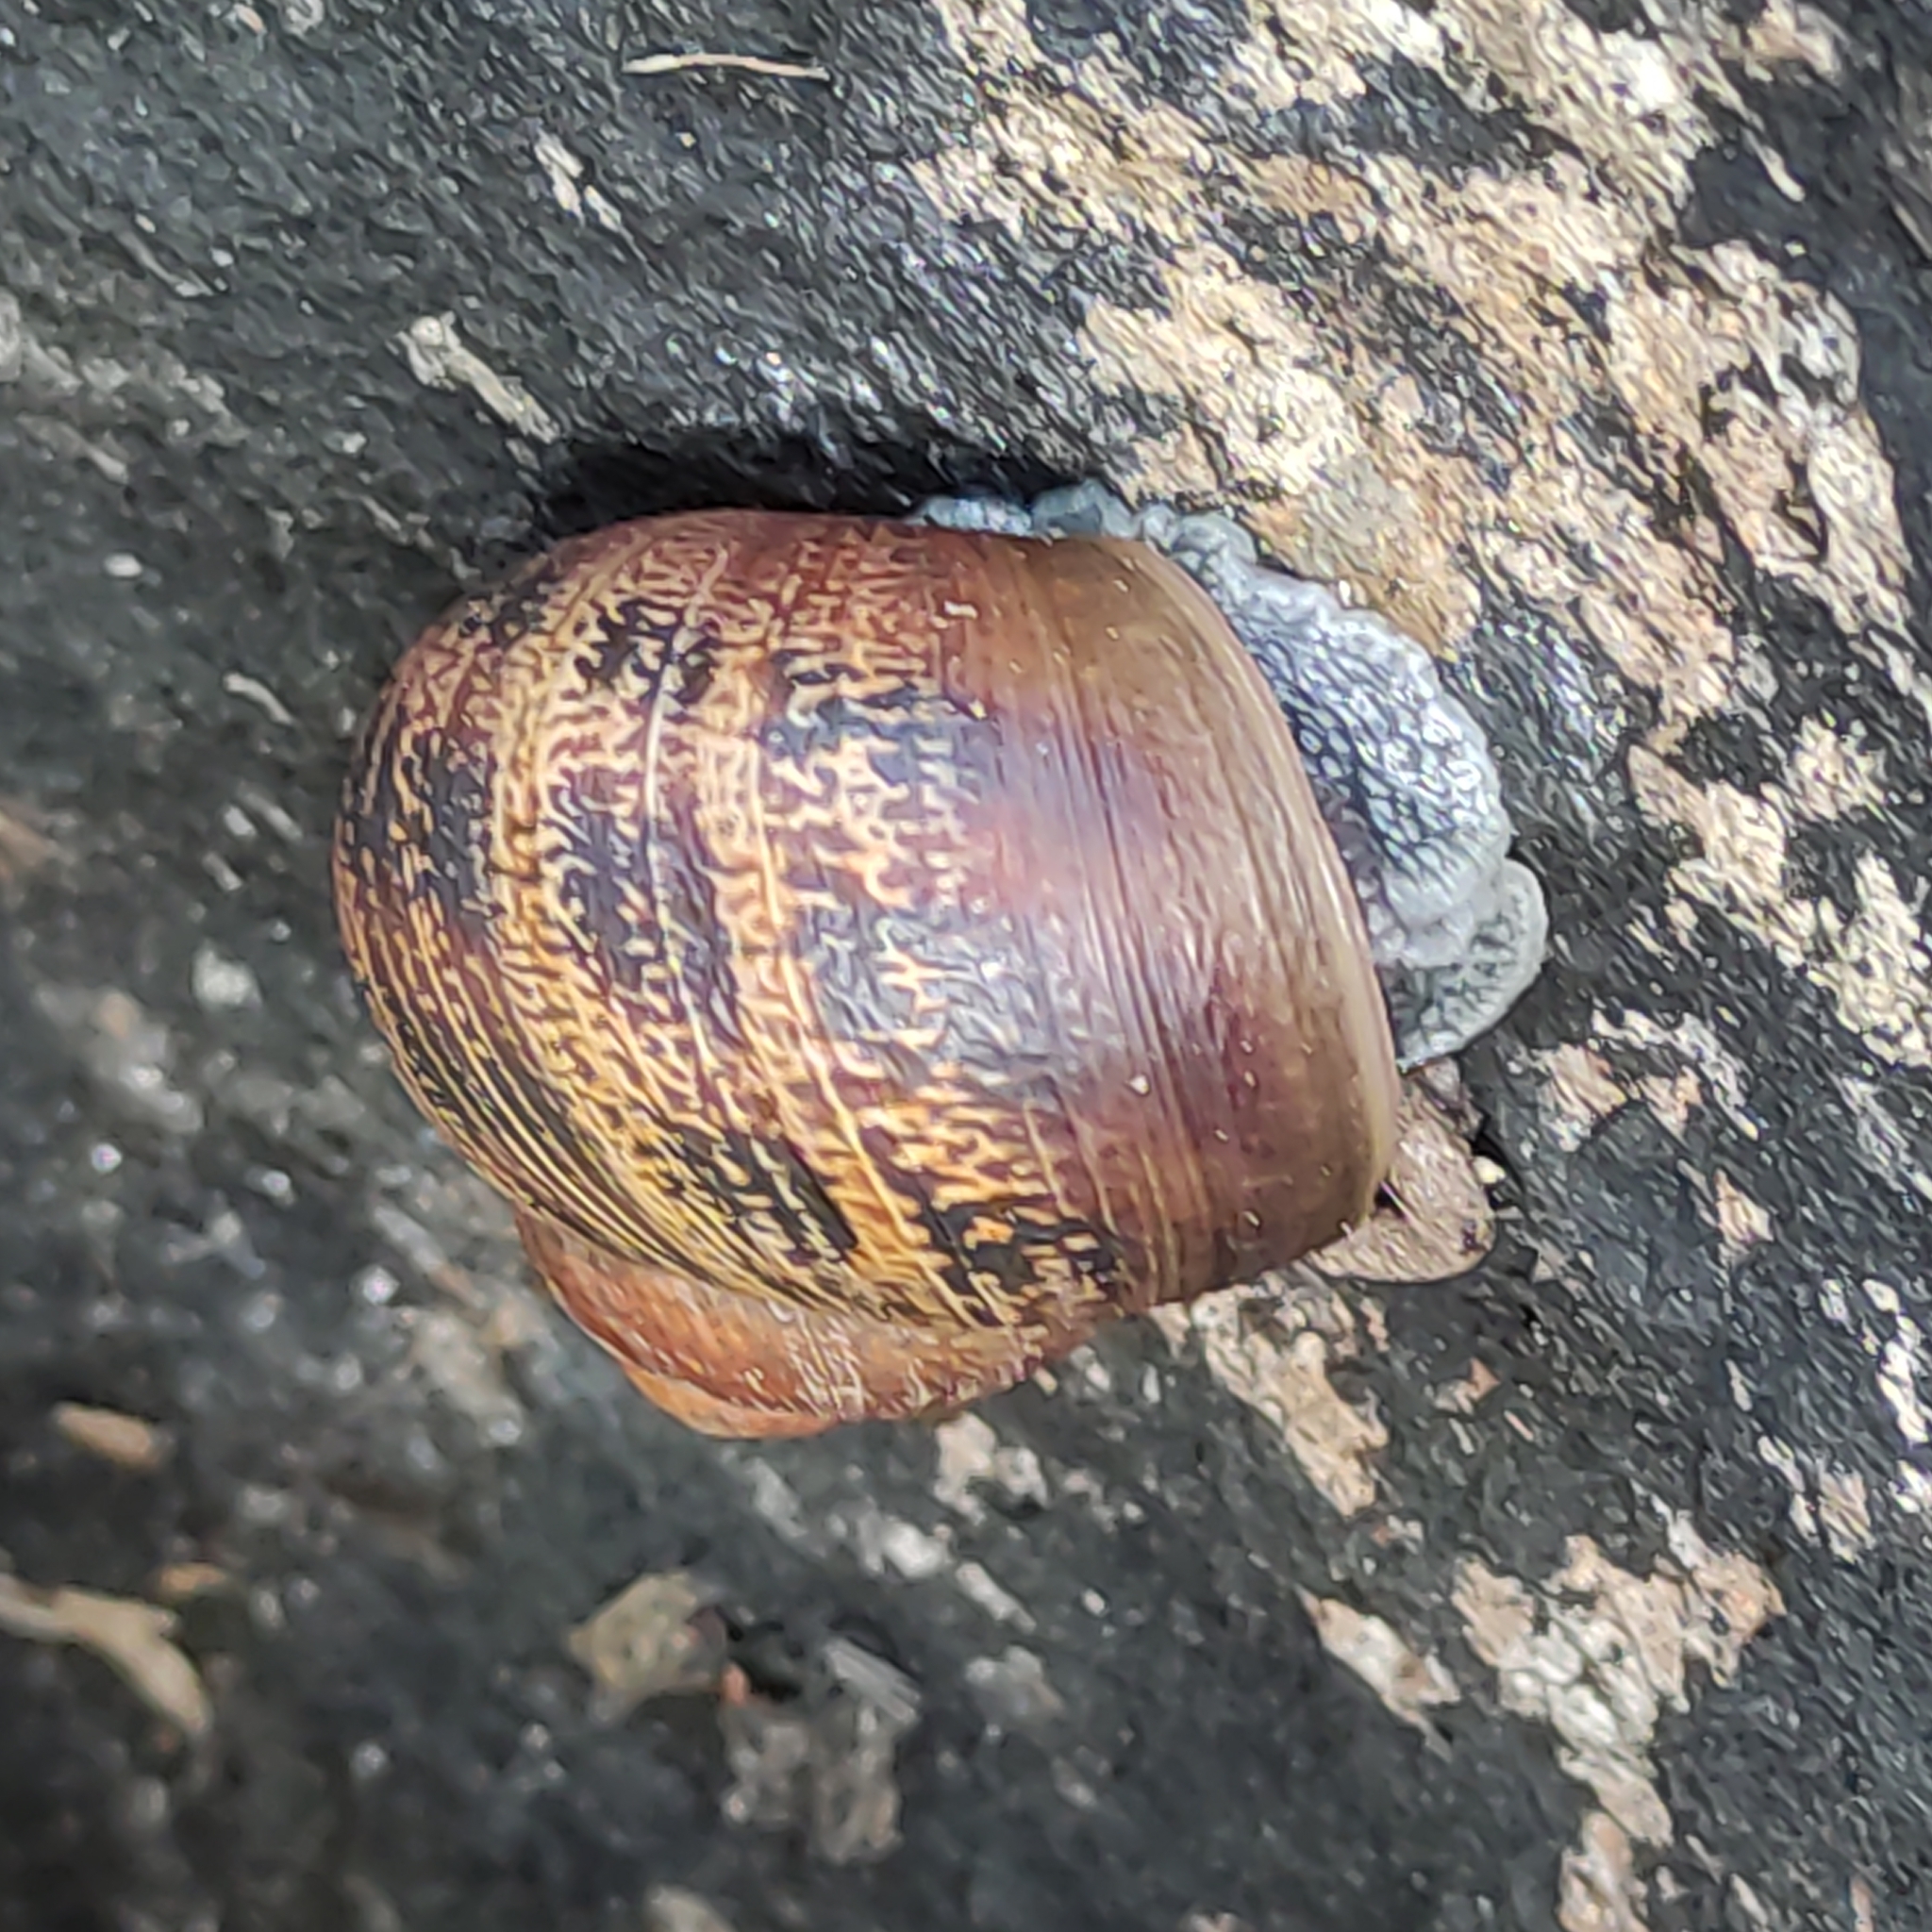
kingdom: Animalia
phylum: Mollusca
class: Gastropoda
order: Stylommatophora
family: Helicidae
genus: Cornu
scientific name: Cornu aspersum
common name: Brown garden snail
